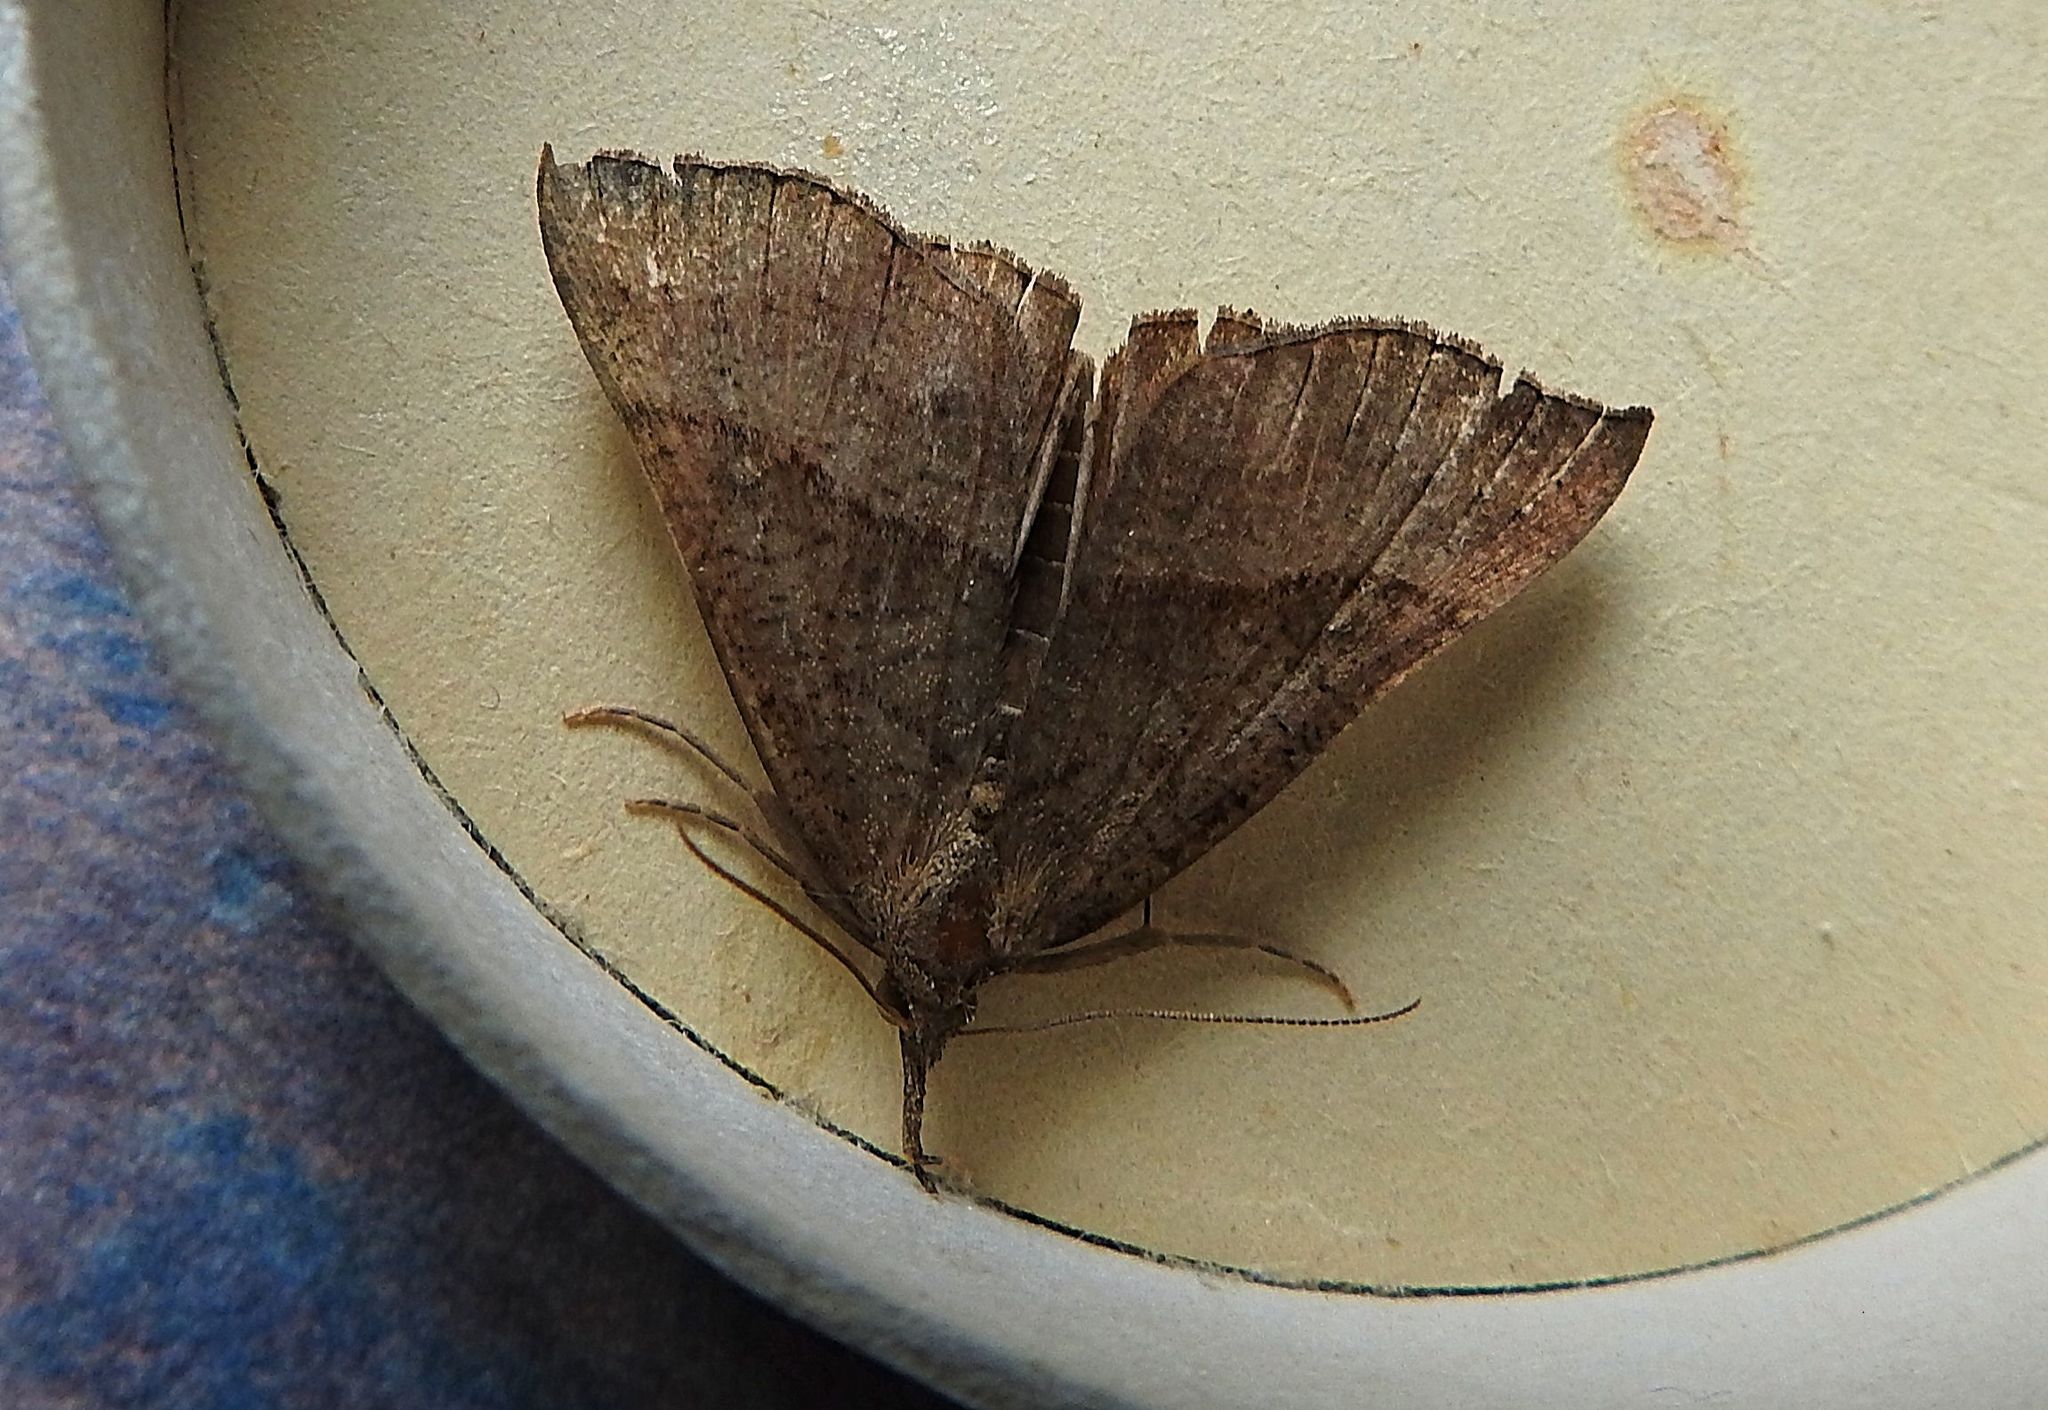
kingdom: Animalia
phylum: Arthropoda
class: Insecta
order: Lepidoptera
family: Erebidae
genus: Hypena
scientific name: Hypena proboscidalis
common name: Snout
